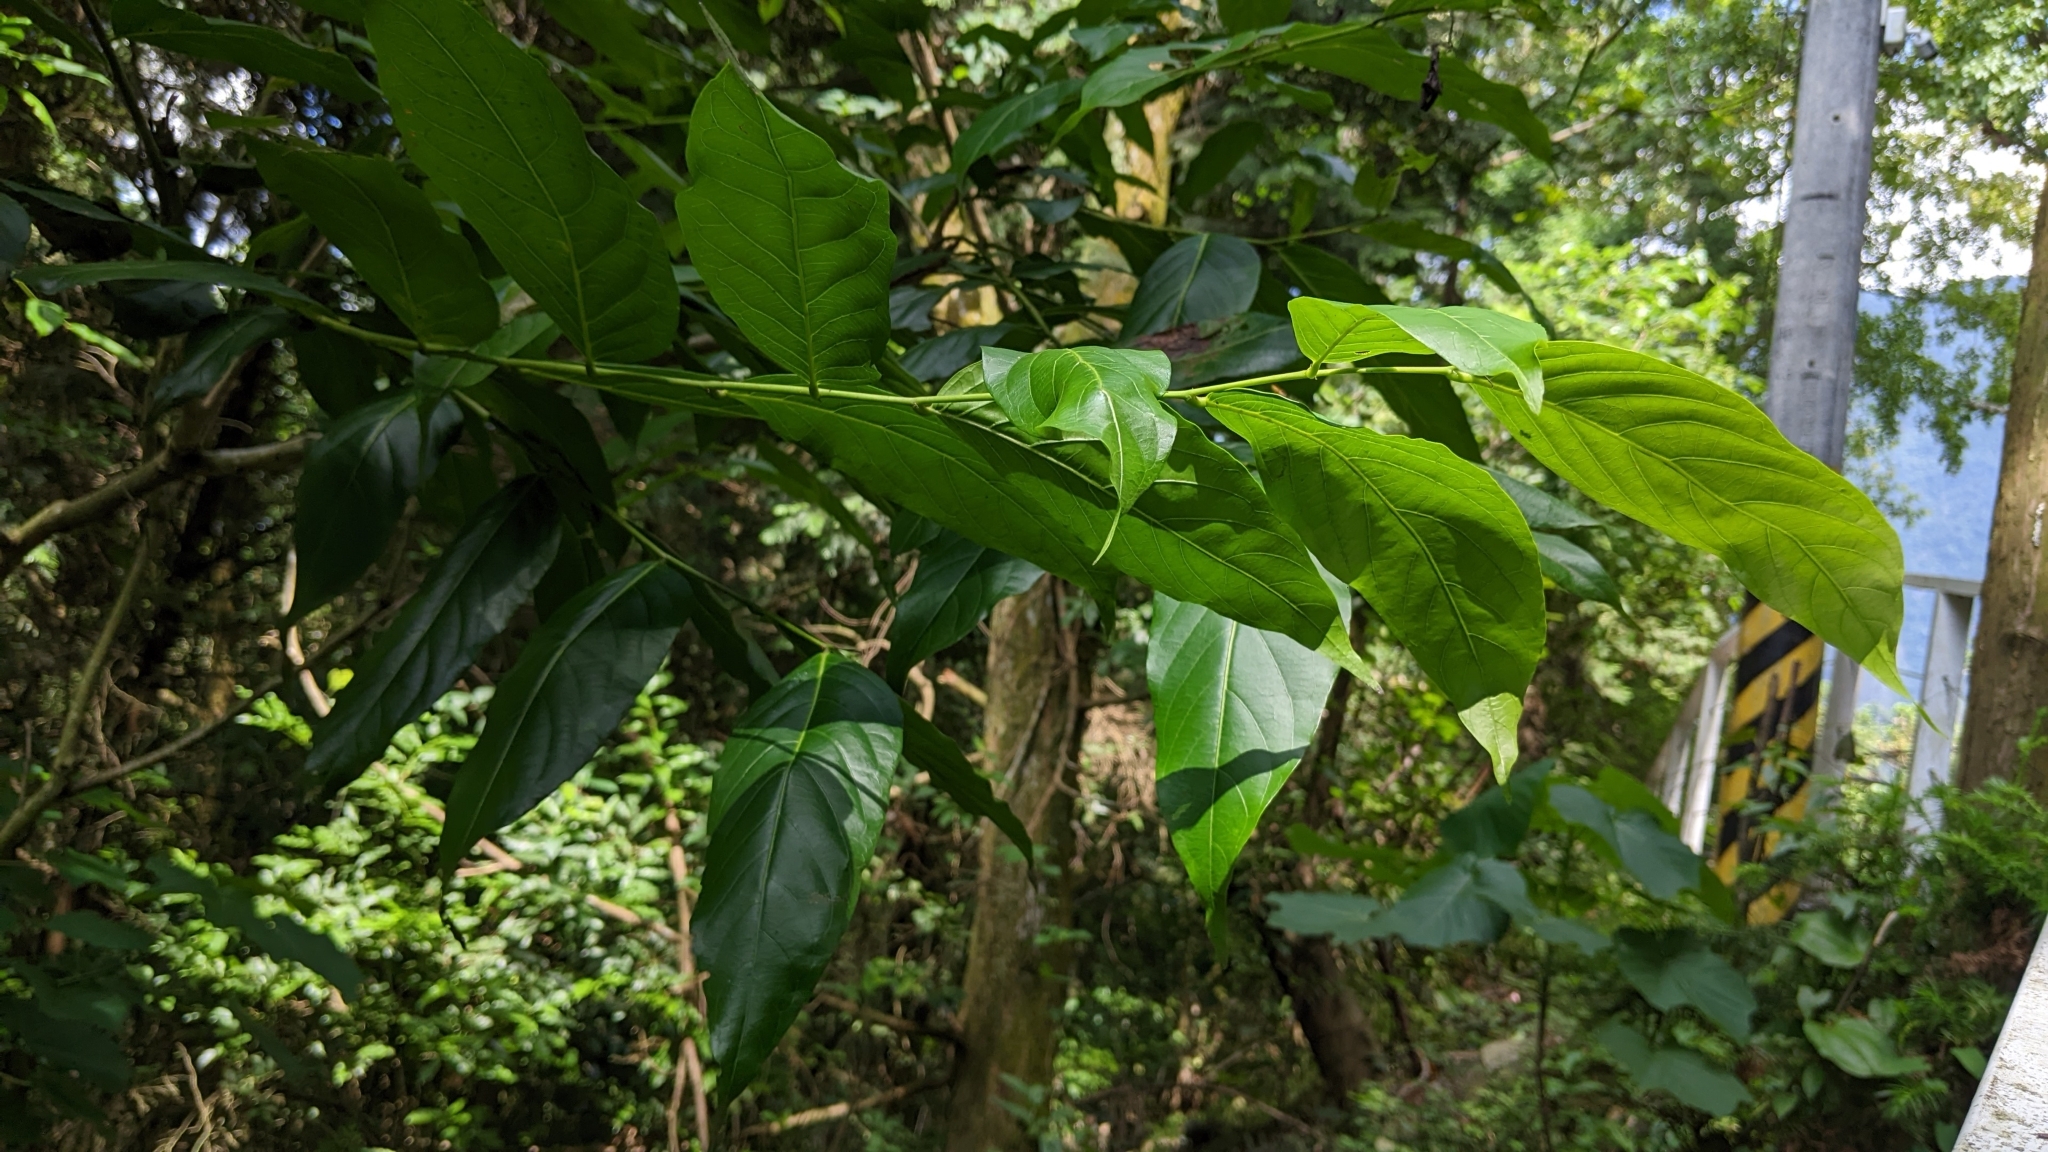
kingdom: Plantae
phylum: Tracheophyta
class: Magnoliopsida
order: Malpighiales
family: Phyllanthaceae
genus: Glochidion
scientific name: Glochidion lanceolatum
